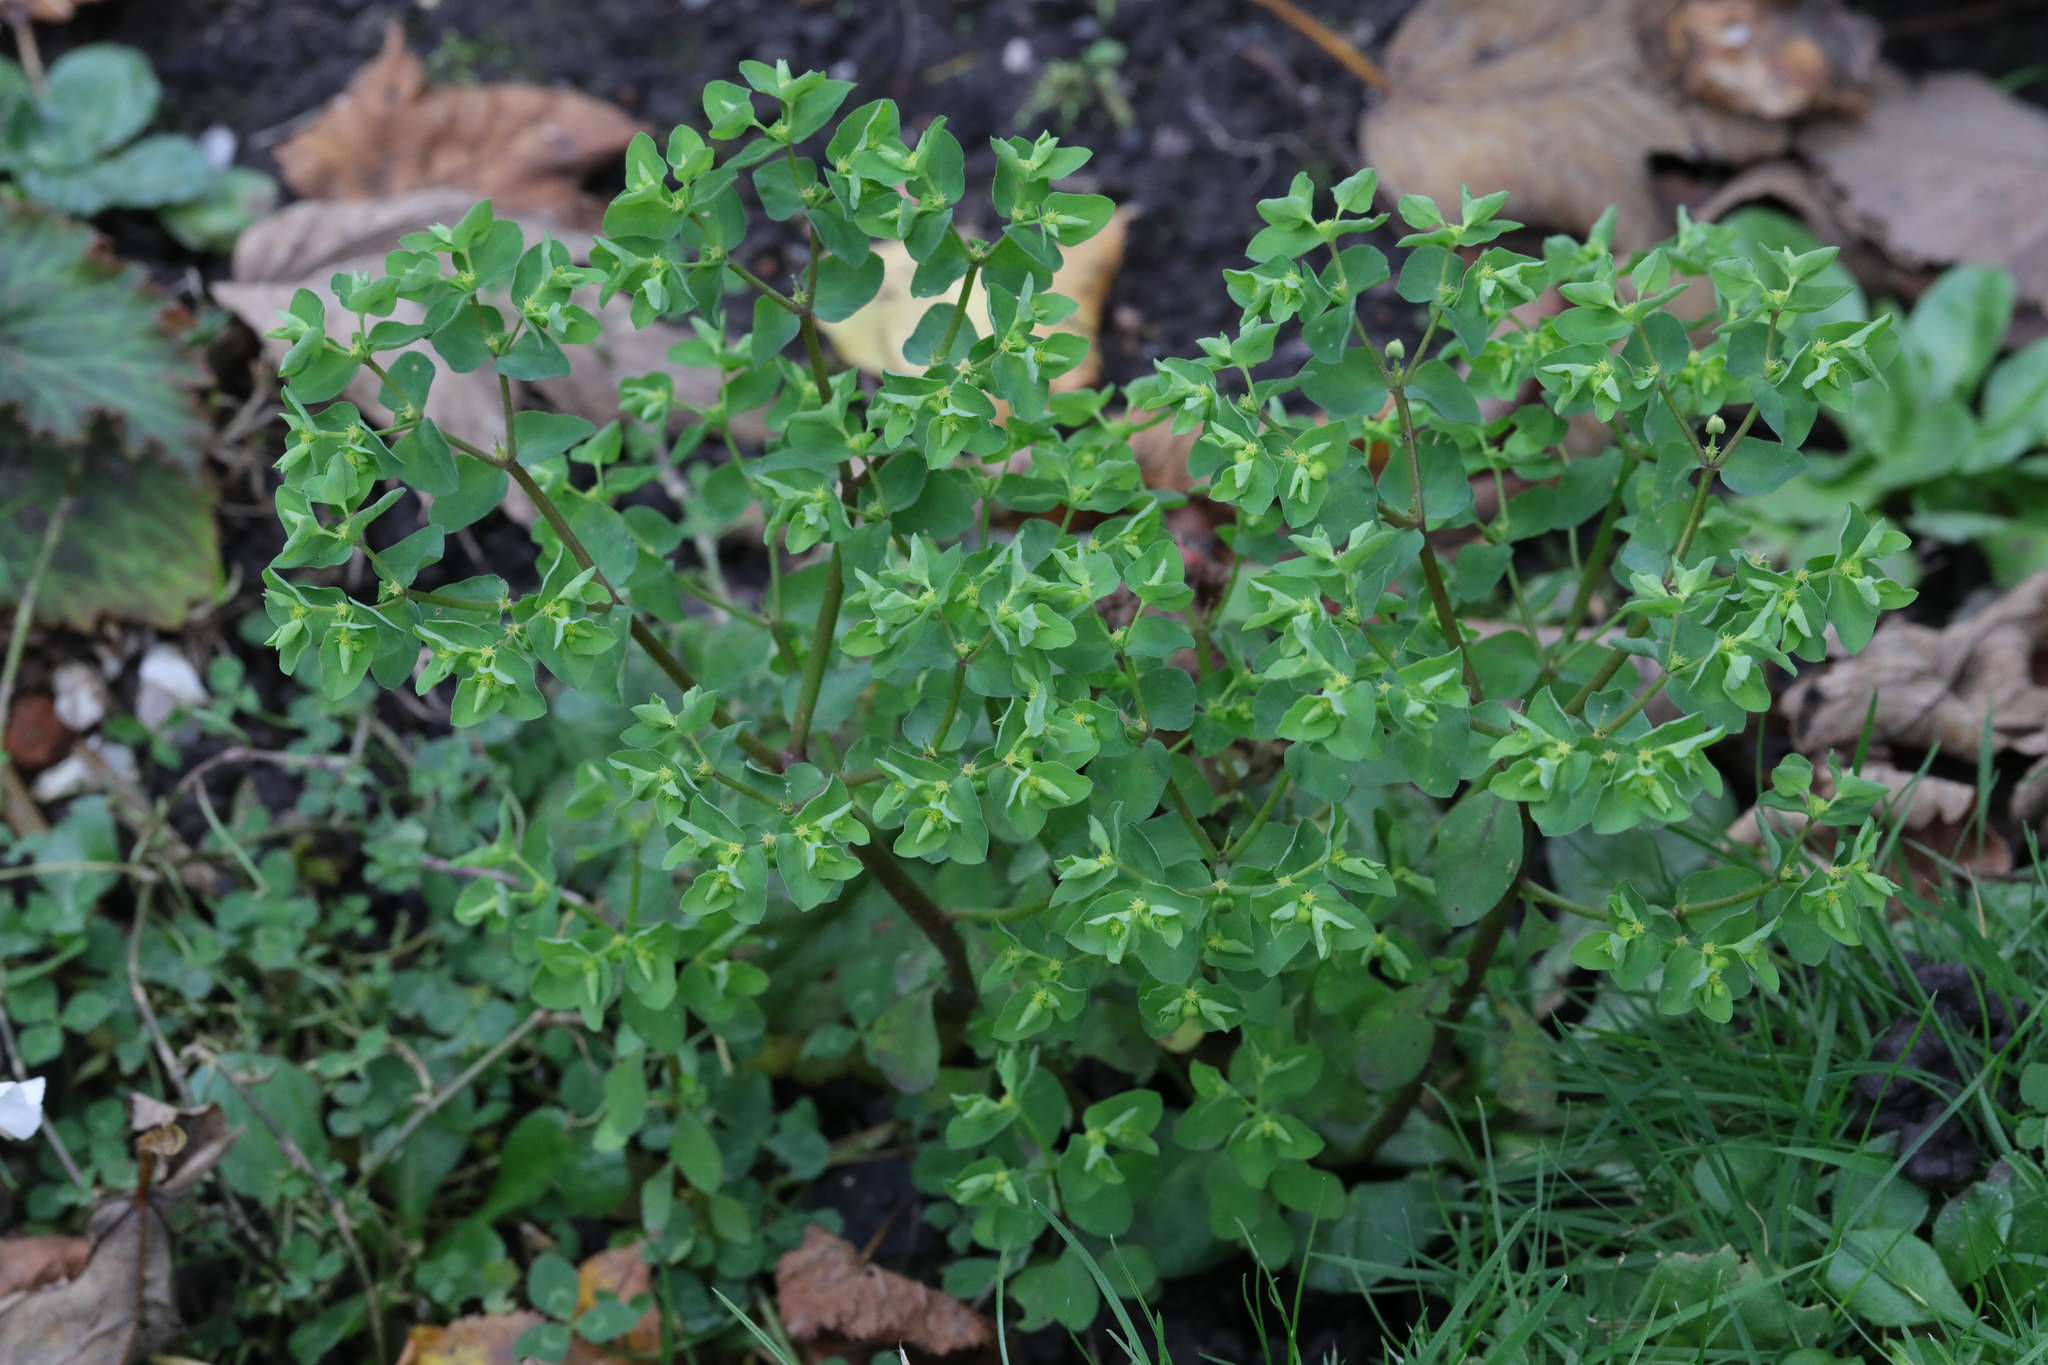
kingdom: Plantae
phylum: Tracheophyta
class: Magnoliopsida
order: Malpighiales
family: Euphorbiaceae
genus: Euphorbia
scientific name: Euphorbia peplus
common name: Petty spurge
